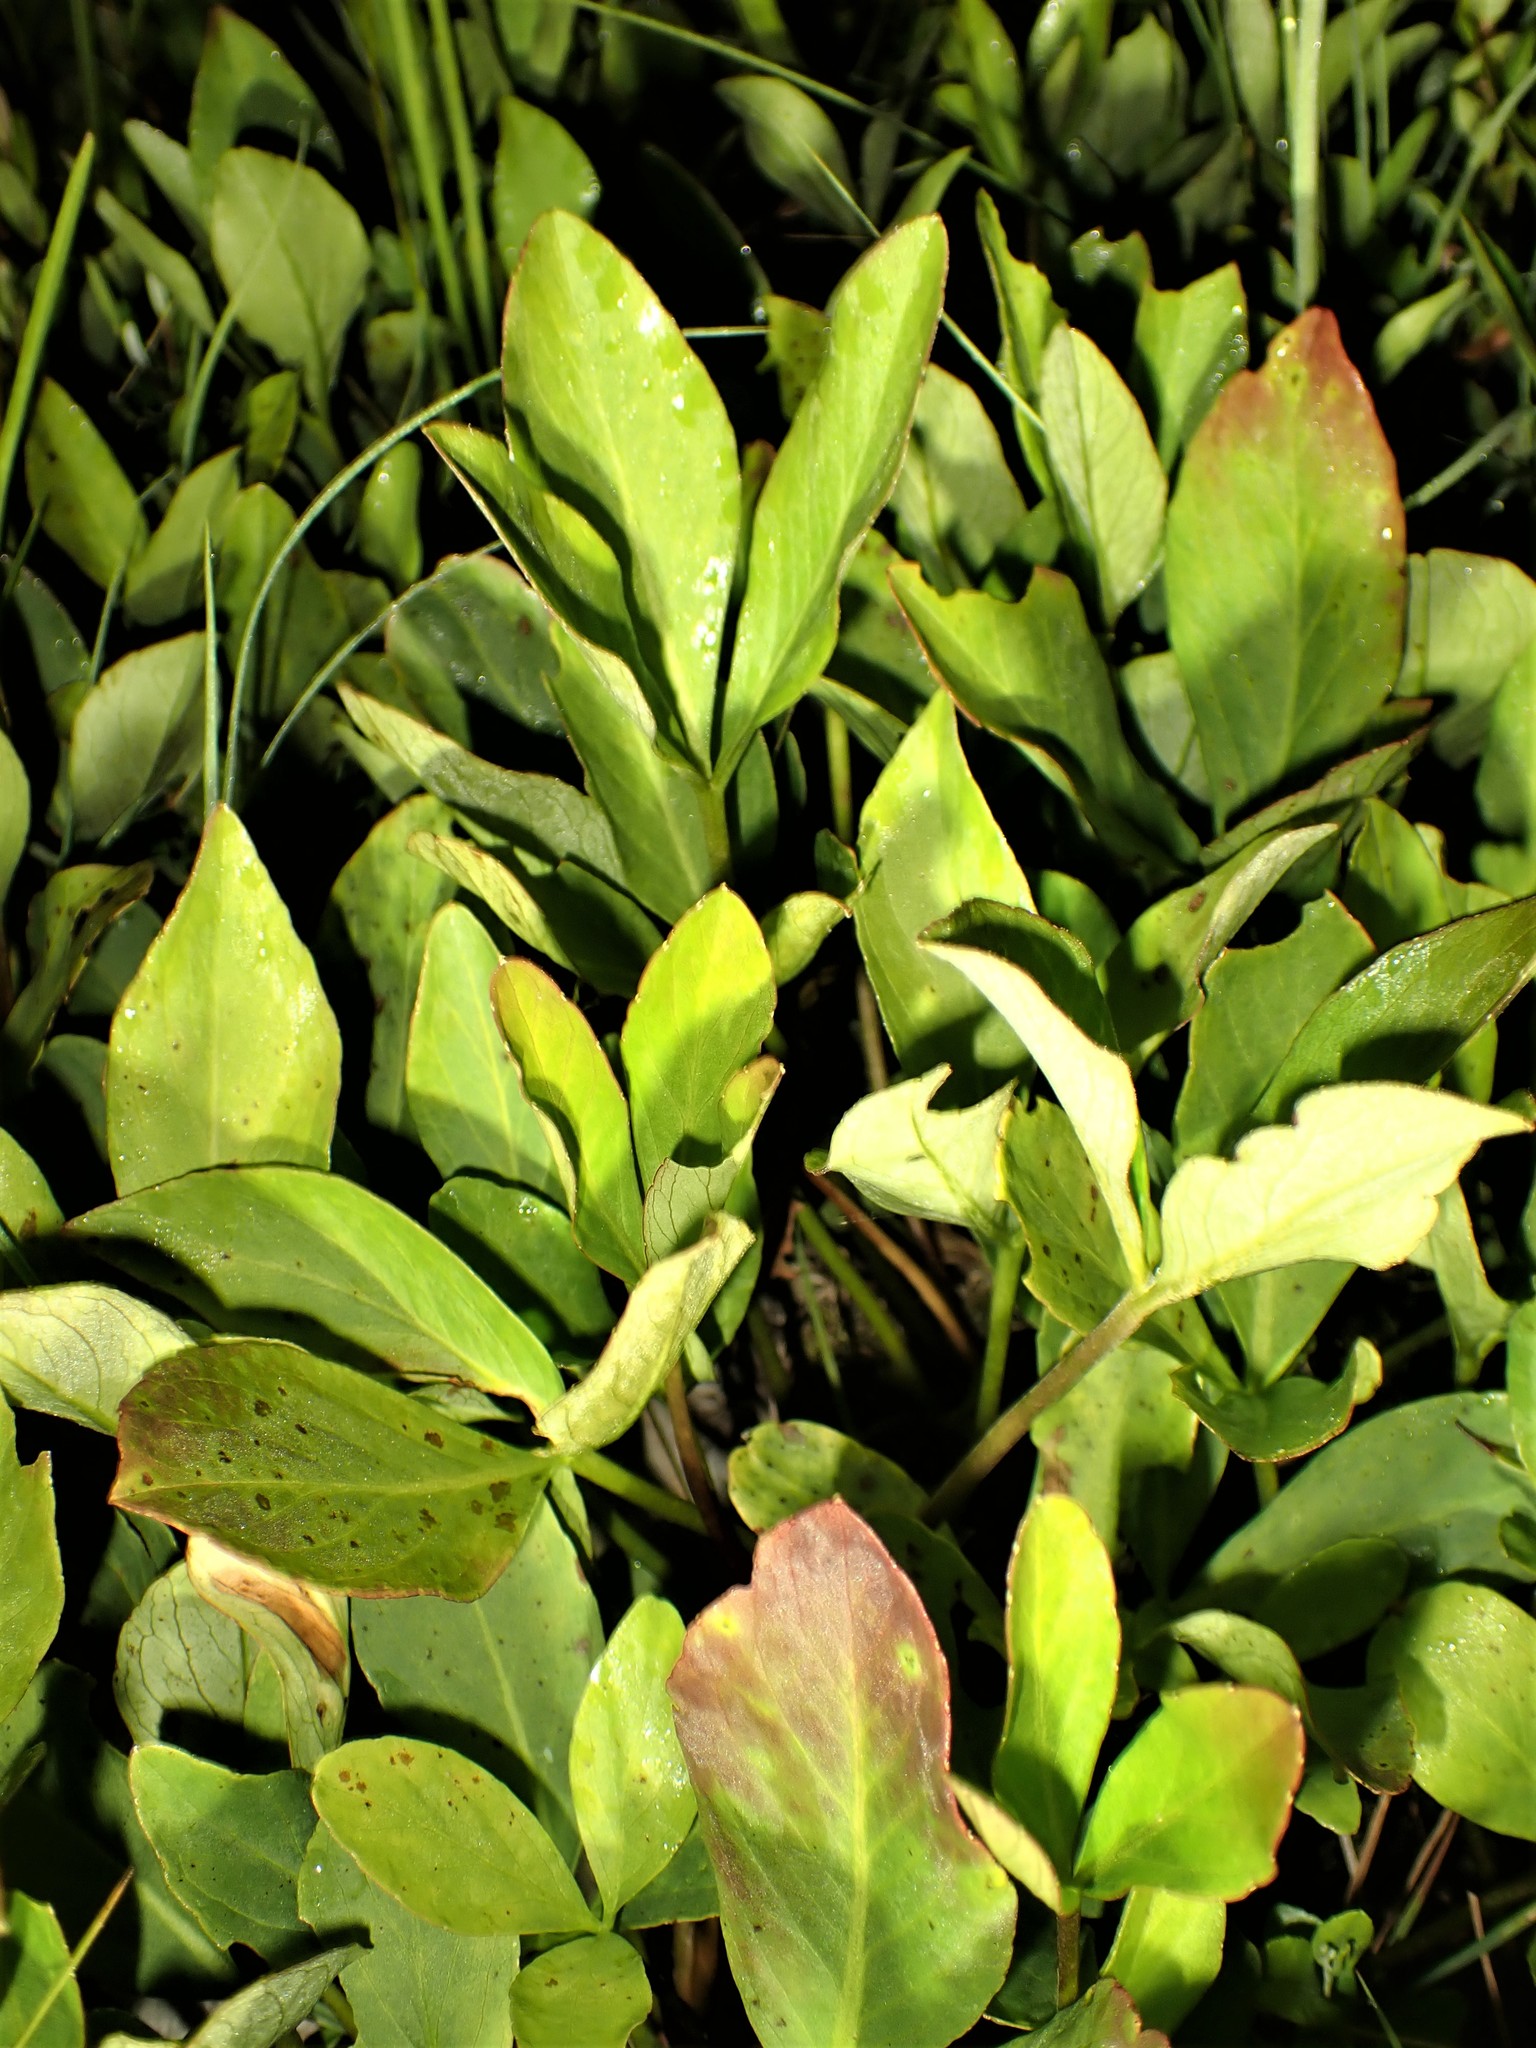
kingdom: Plantae
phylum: Tracheophyta
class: Magnoliopsida
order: Asterales
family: Menyanthaceae
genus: Menyanthes
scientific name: Menyanthes trifoliata
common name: Bogbean
